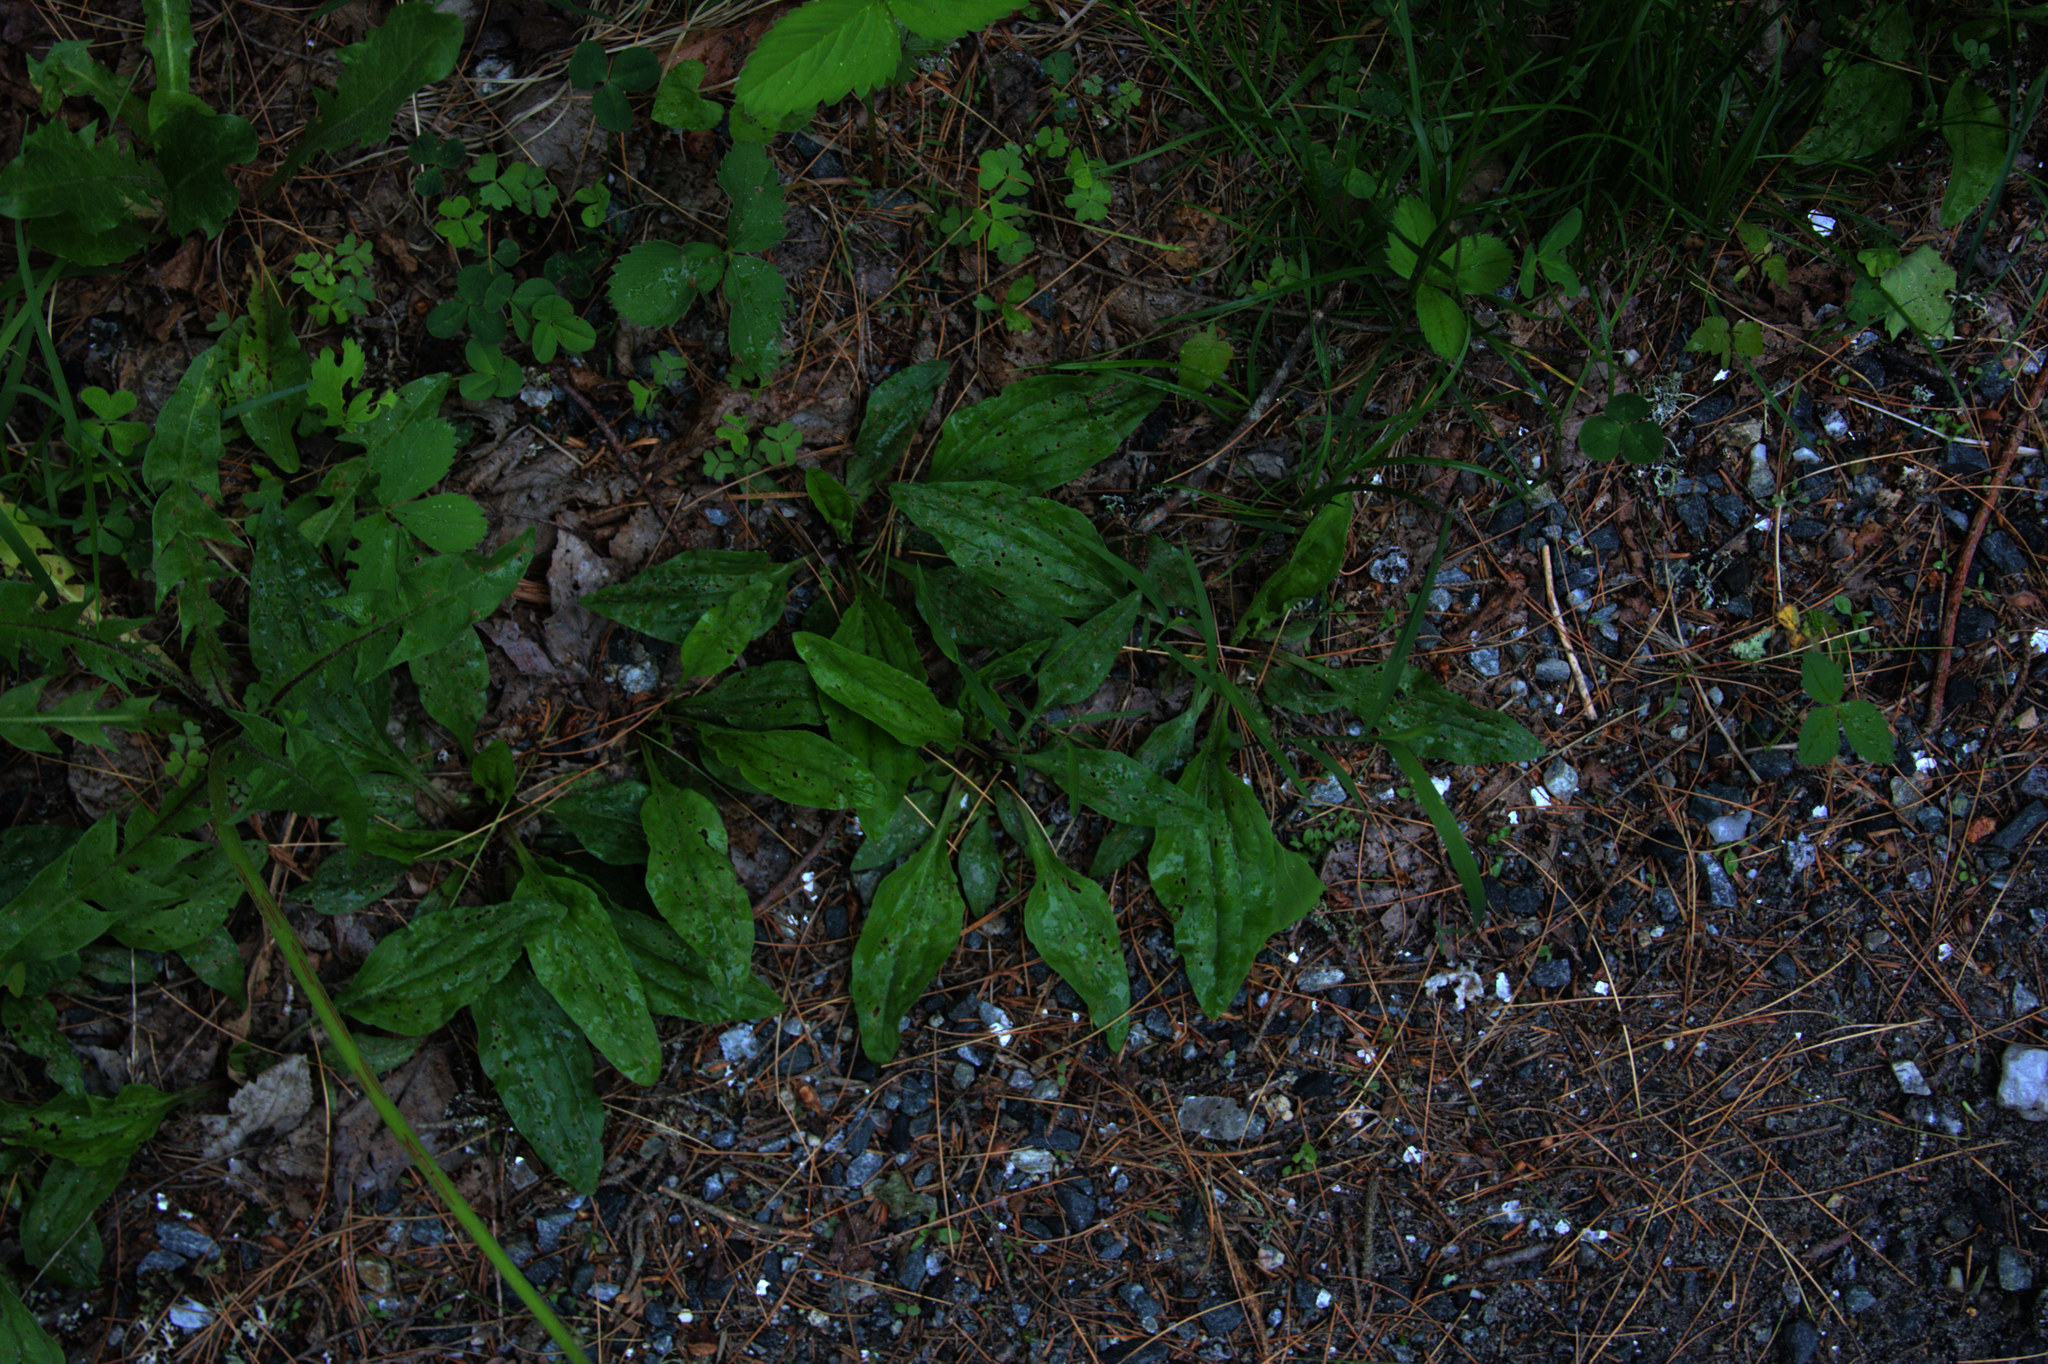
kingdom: Plantae
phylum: Tracheophyta
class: Magnoliopsida
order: Lamiales
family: Plantaginaceae
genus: Plantago
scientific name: Plantago rugelii
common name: American plantain
